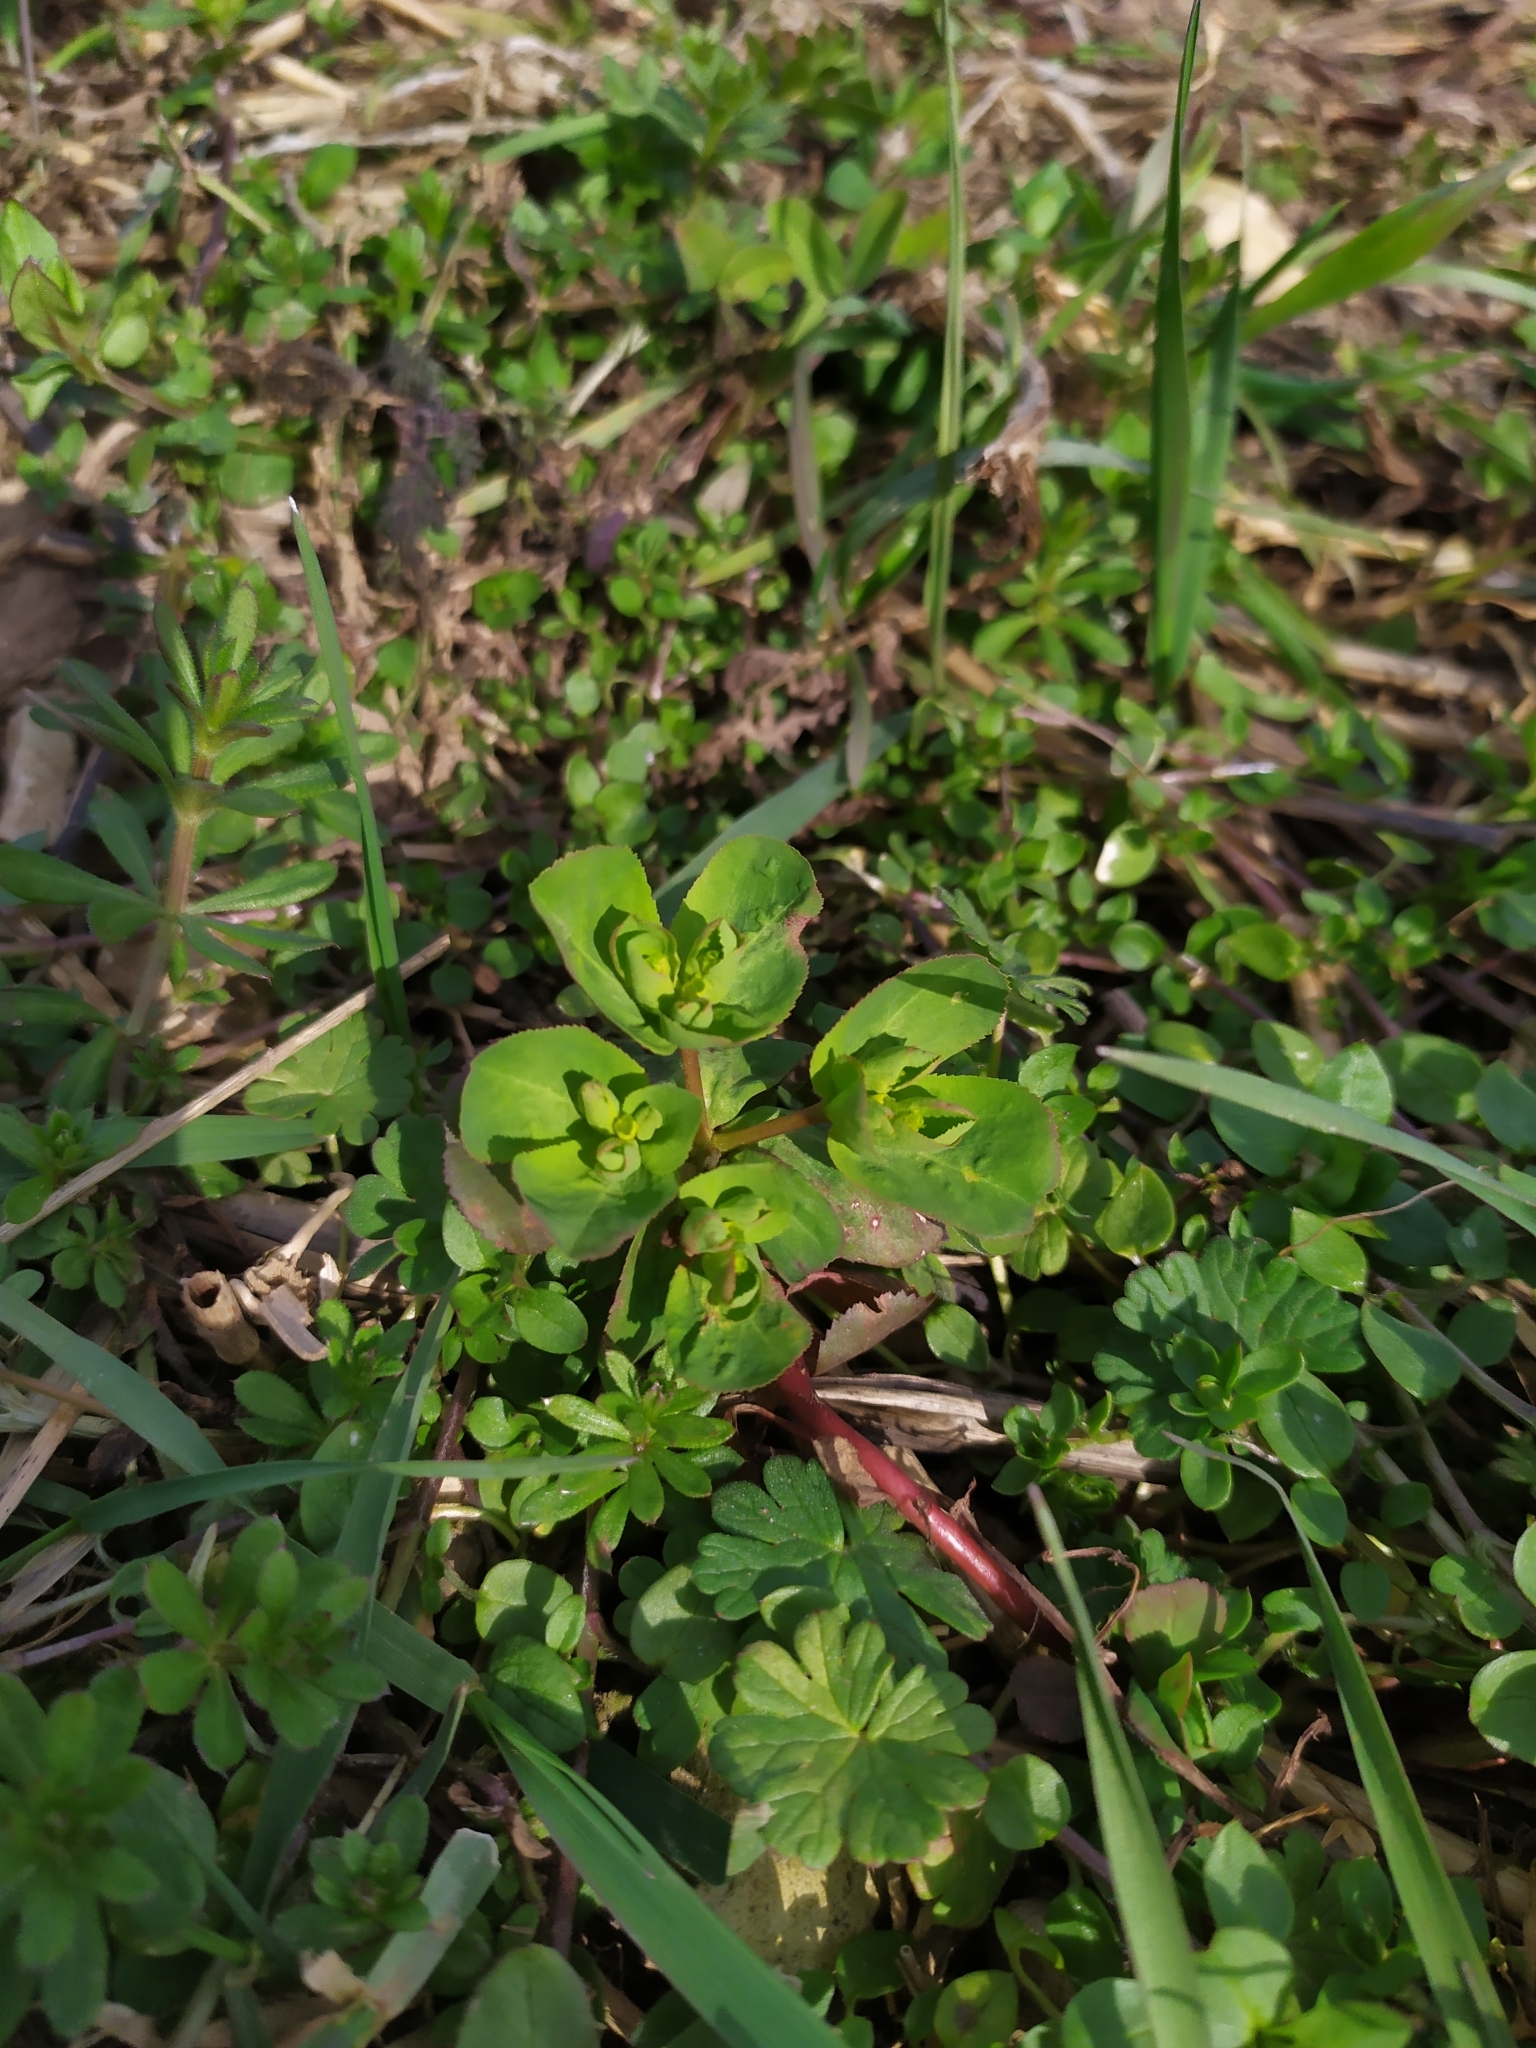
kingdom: Plantae
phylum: Tracheophyta
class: Magnoliopsida
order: Malpighiales
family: Euphorbiaceae
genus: Euphorbia
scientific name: Euphorbia helioscopia
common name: Sun spurge
